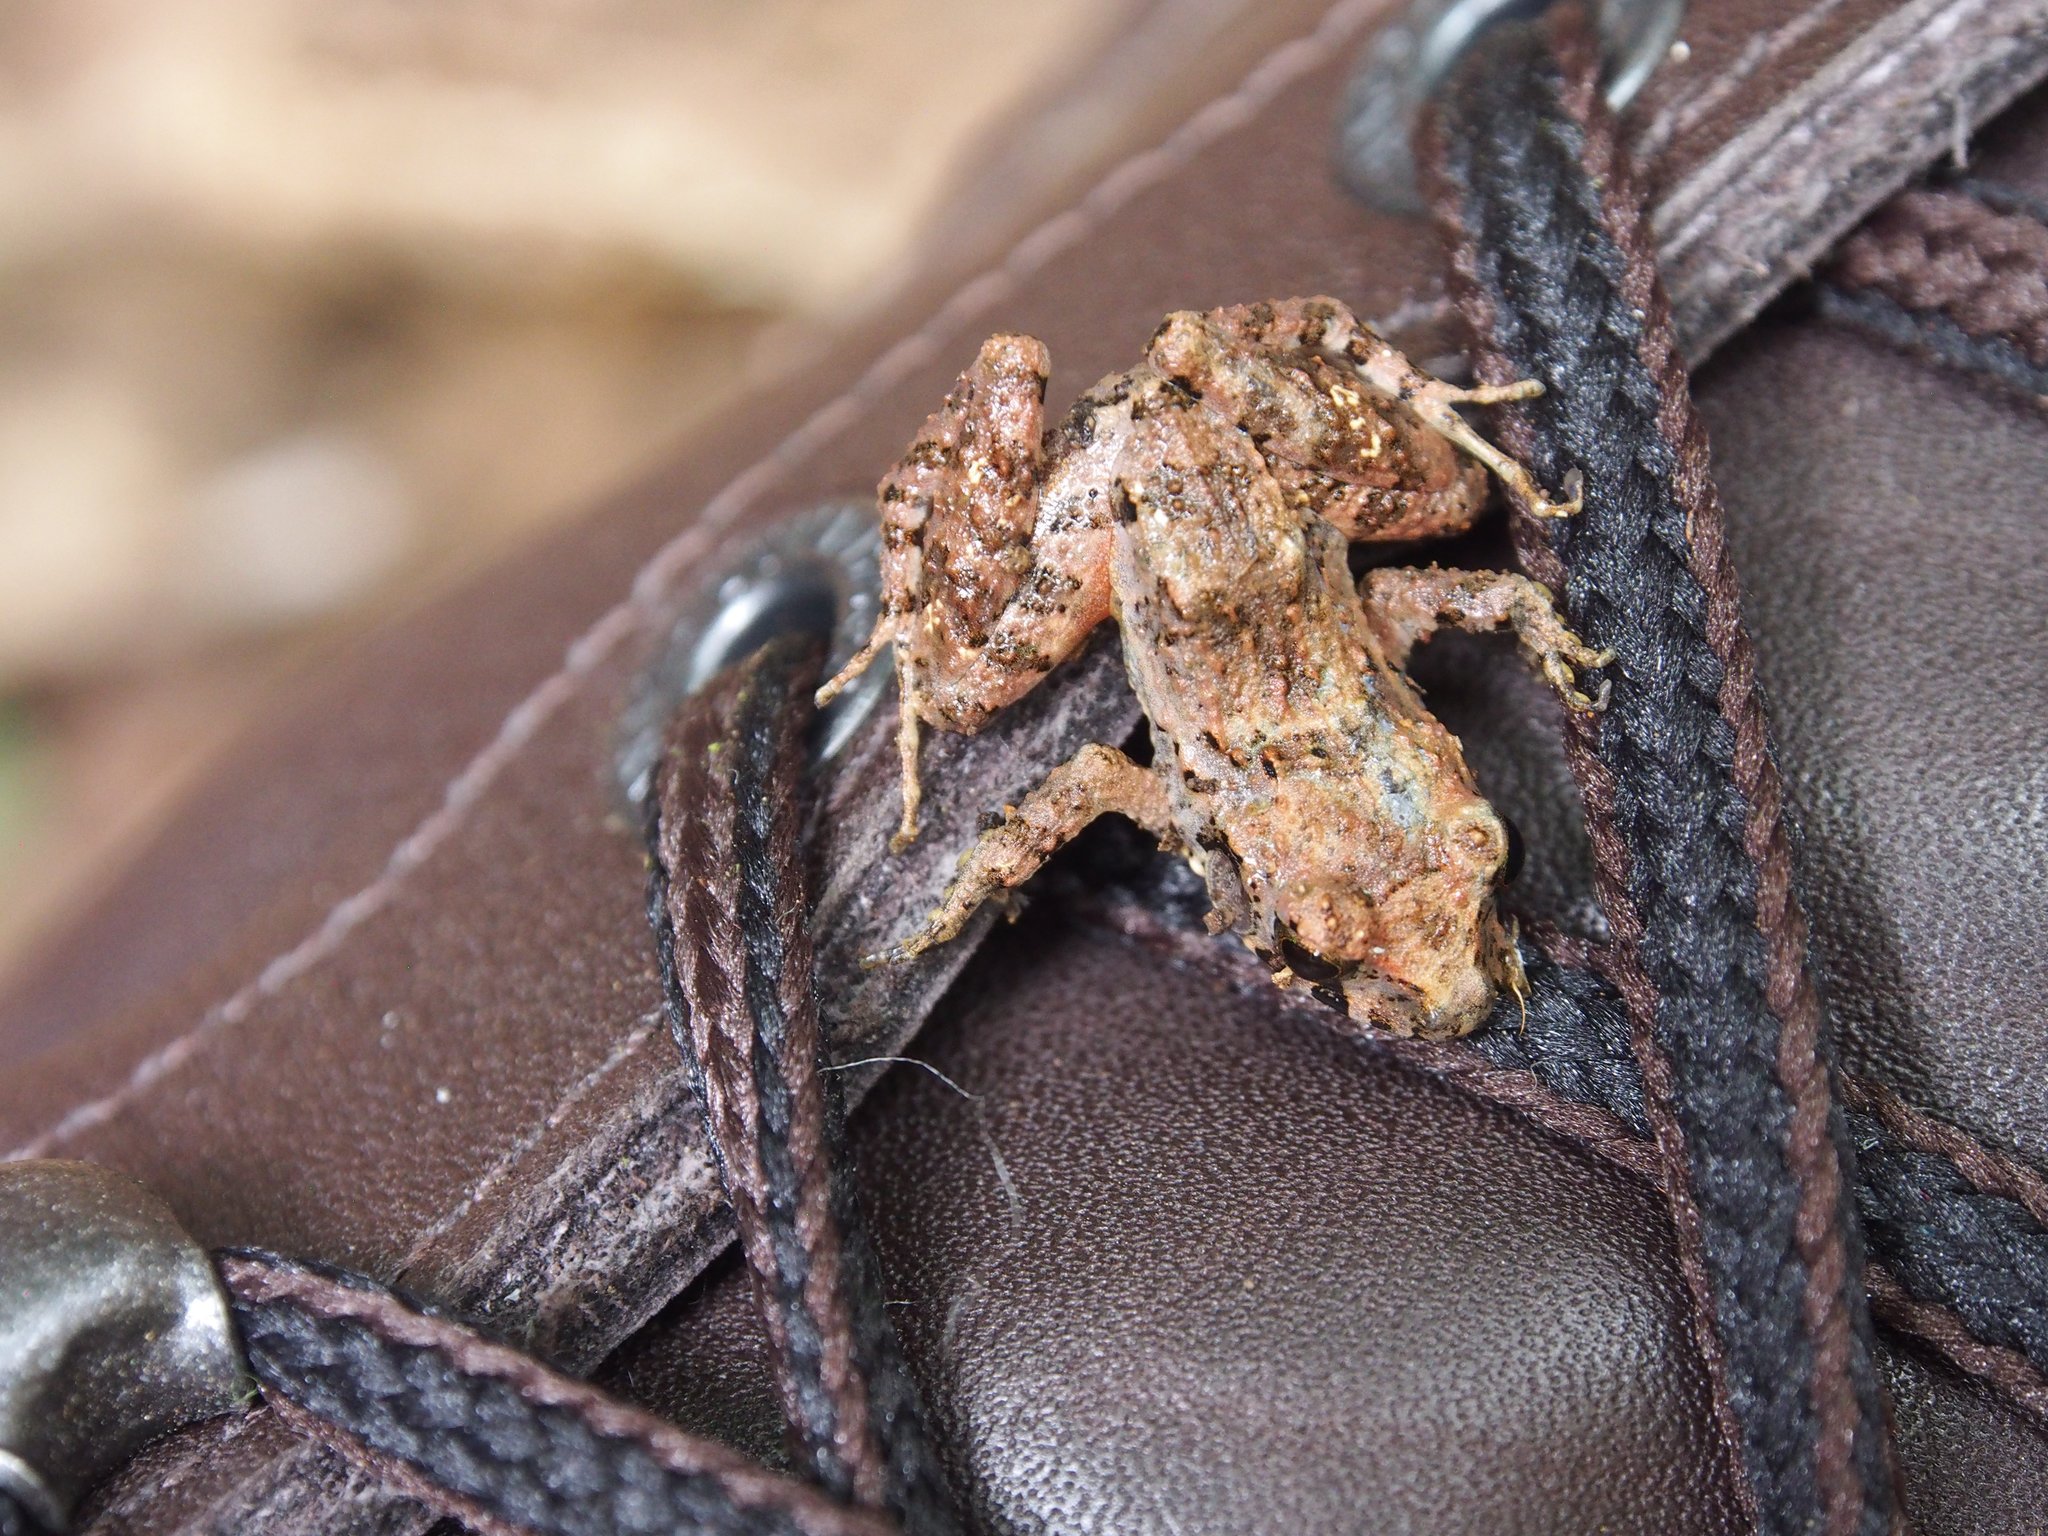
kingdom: Animalia
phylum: Chordata
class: Amphibia
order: Anura
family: Craugastoridae
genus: Craugastor
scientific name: Craugastor bransfordii
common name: Bransford's robber frog
